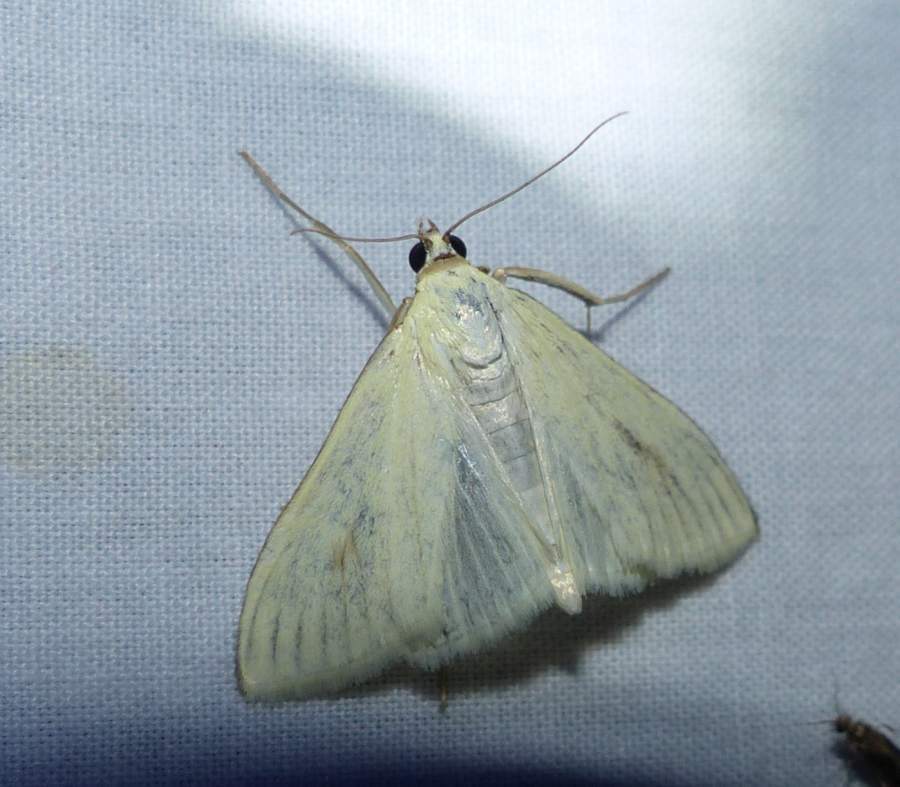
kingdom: Animalia
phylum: Arthropoda
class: Insecta
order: Lepidoptera
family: Crambidae
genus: Sitochroa
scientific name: Sitochroa palealis
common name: Greenish-yellow sitochroa moth
